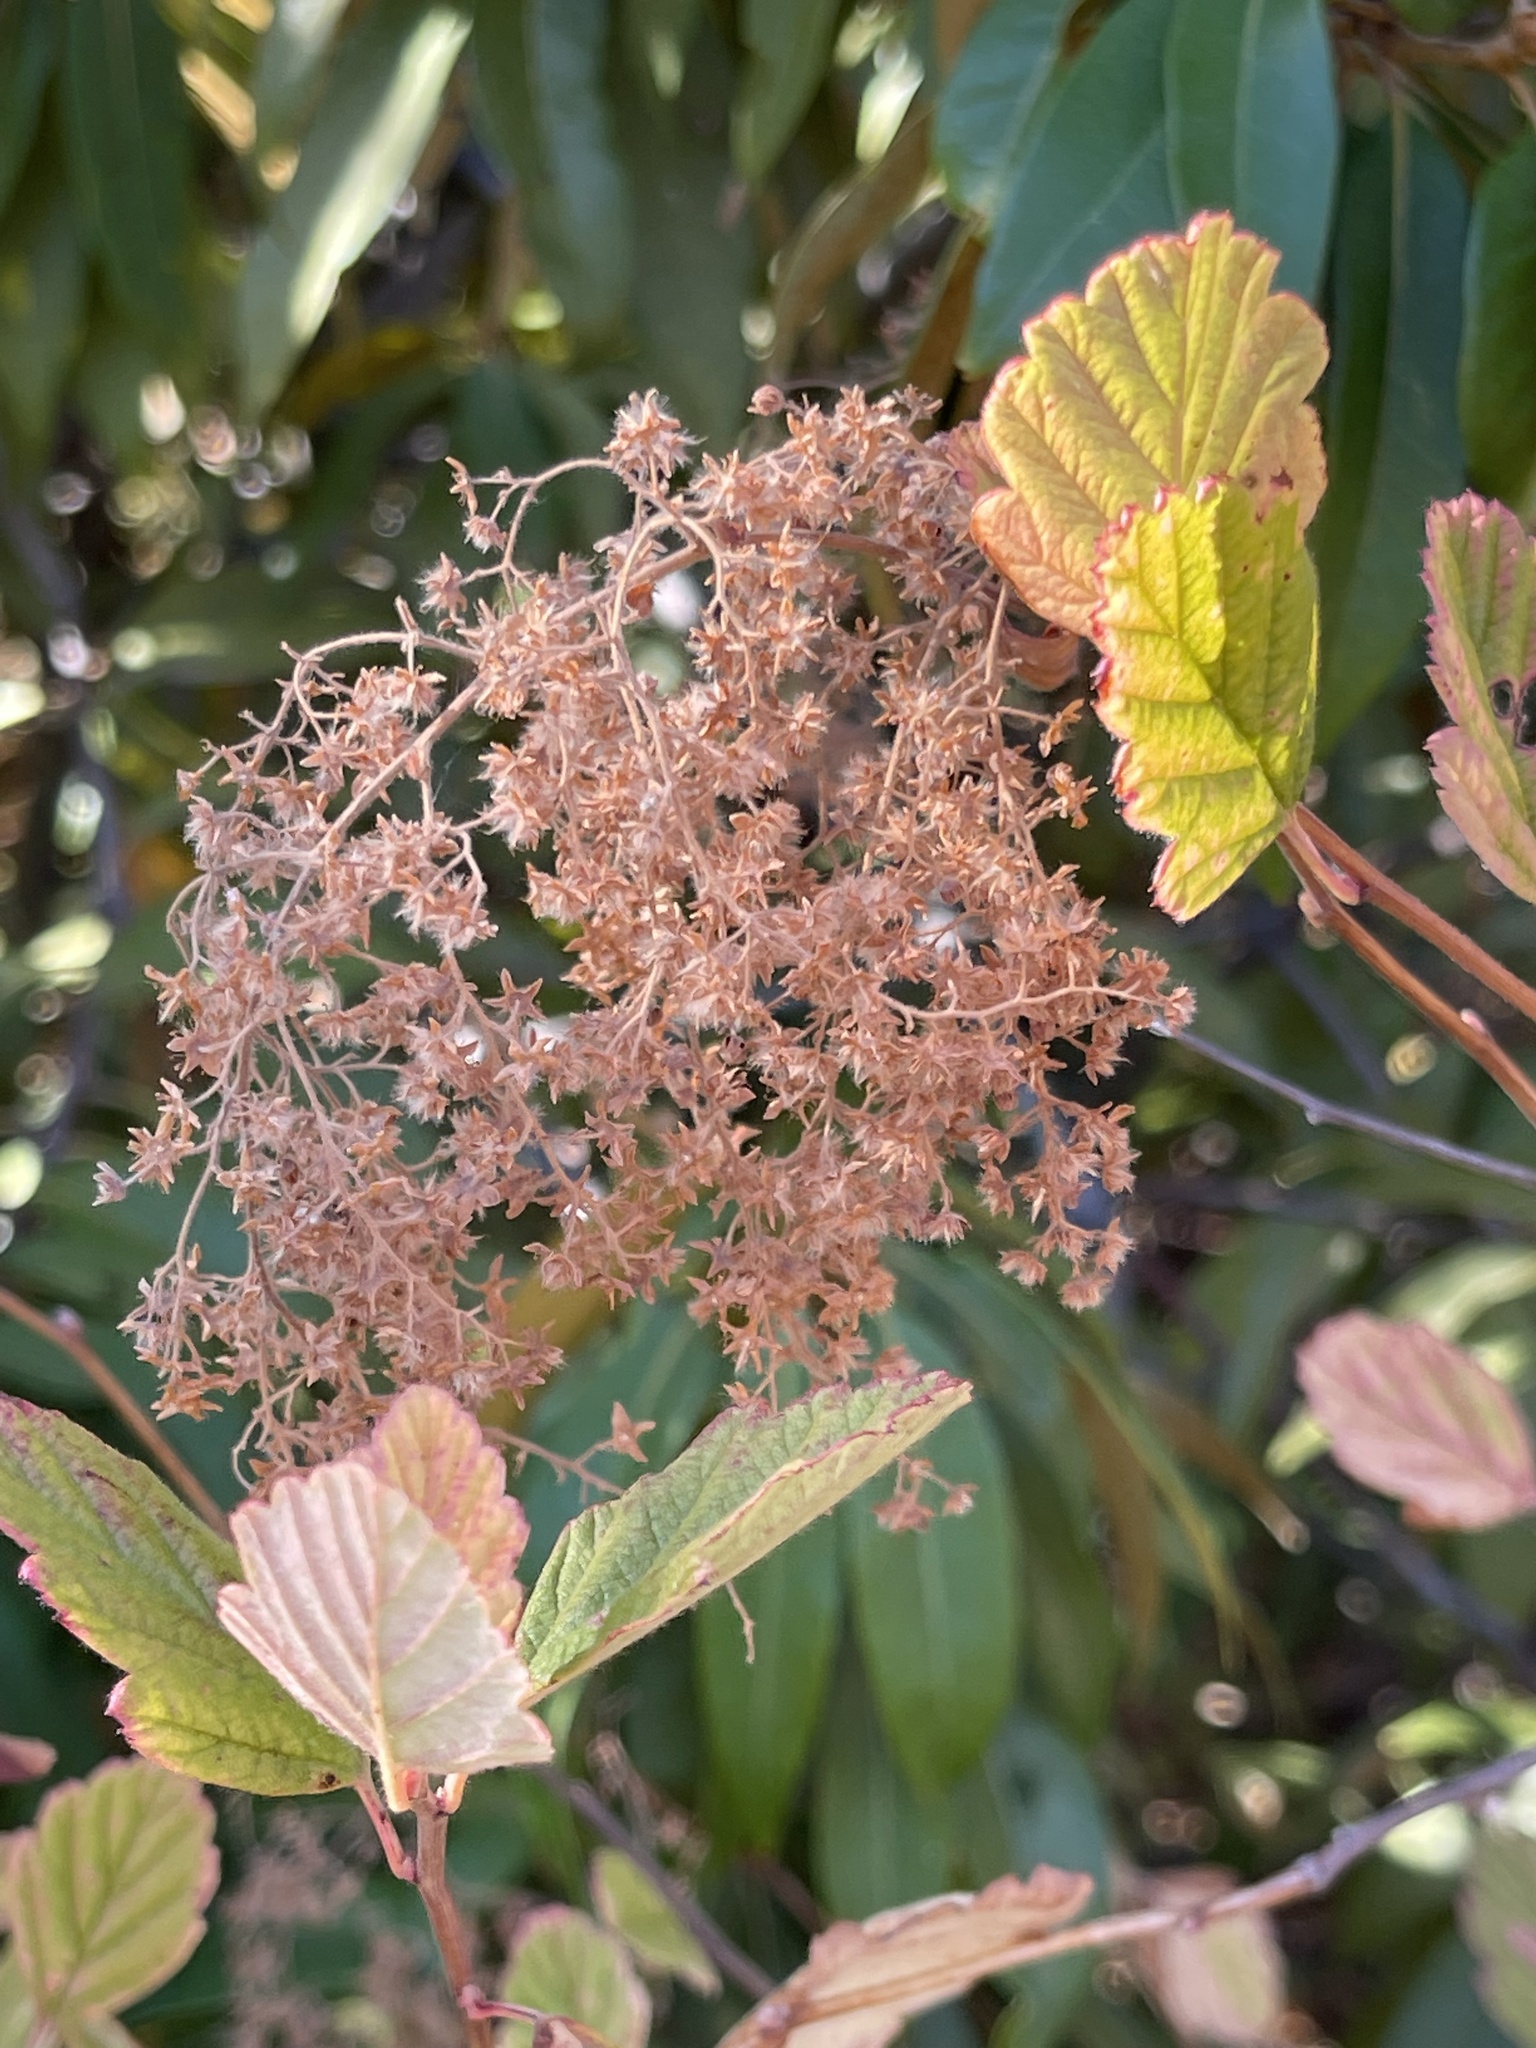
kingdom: Plantae
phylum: Tracheophyta
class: Magnoliopsida
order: Rosales
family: Rosaceae
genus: Holodiscus
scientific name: Holodiscus discolor
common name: Oceanspray
